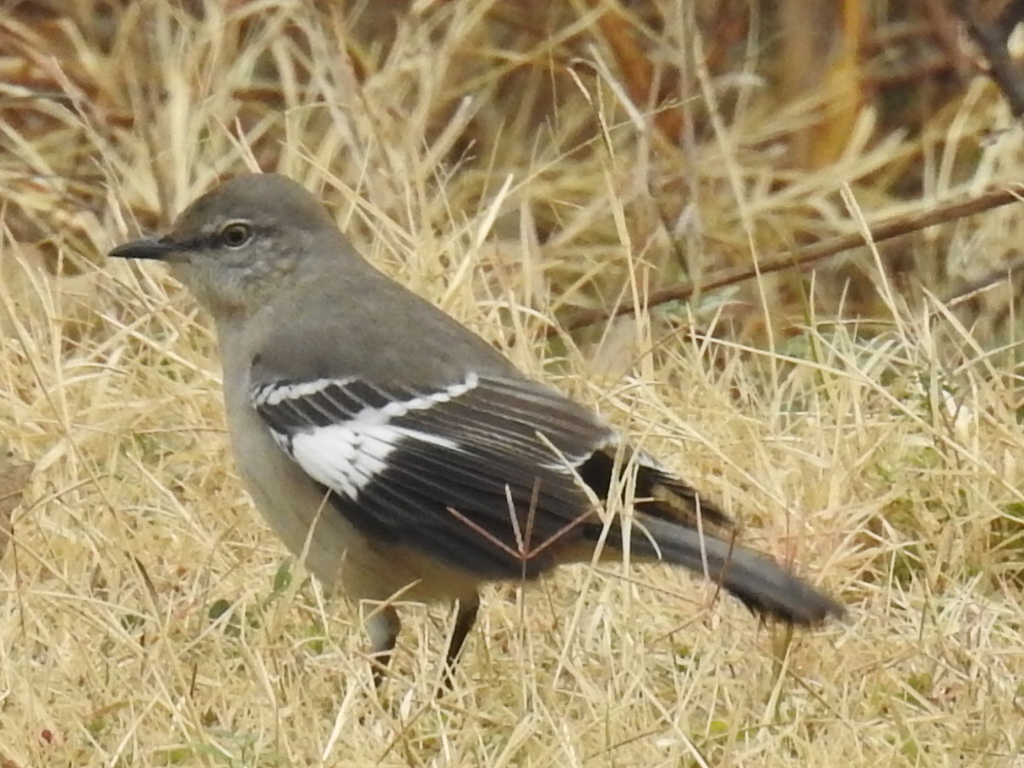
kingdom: Animalia
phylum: Chordata
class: Aves
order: Passeriformes
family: Mimidae
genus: Mimus
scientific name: Mimus polyglottos
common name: Northern mockingbird
